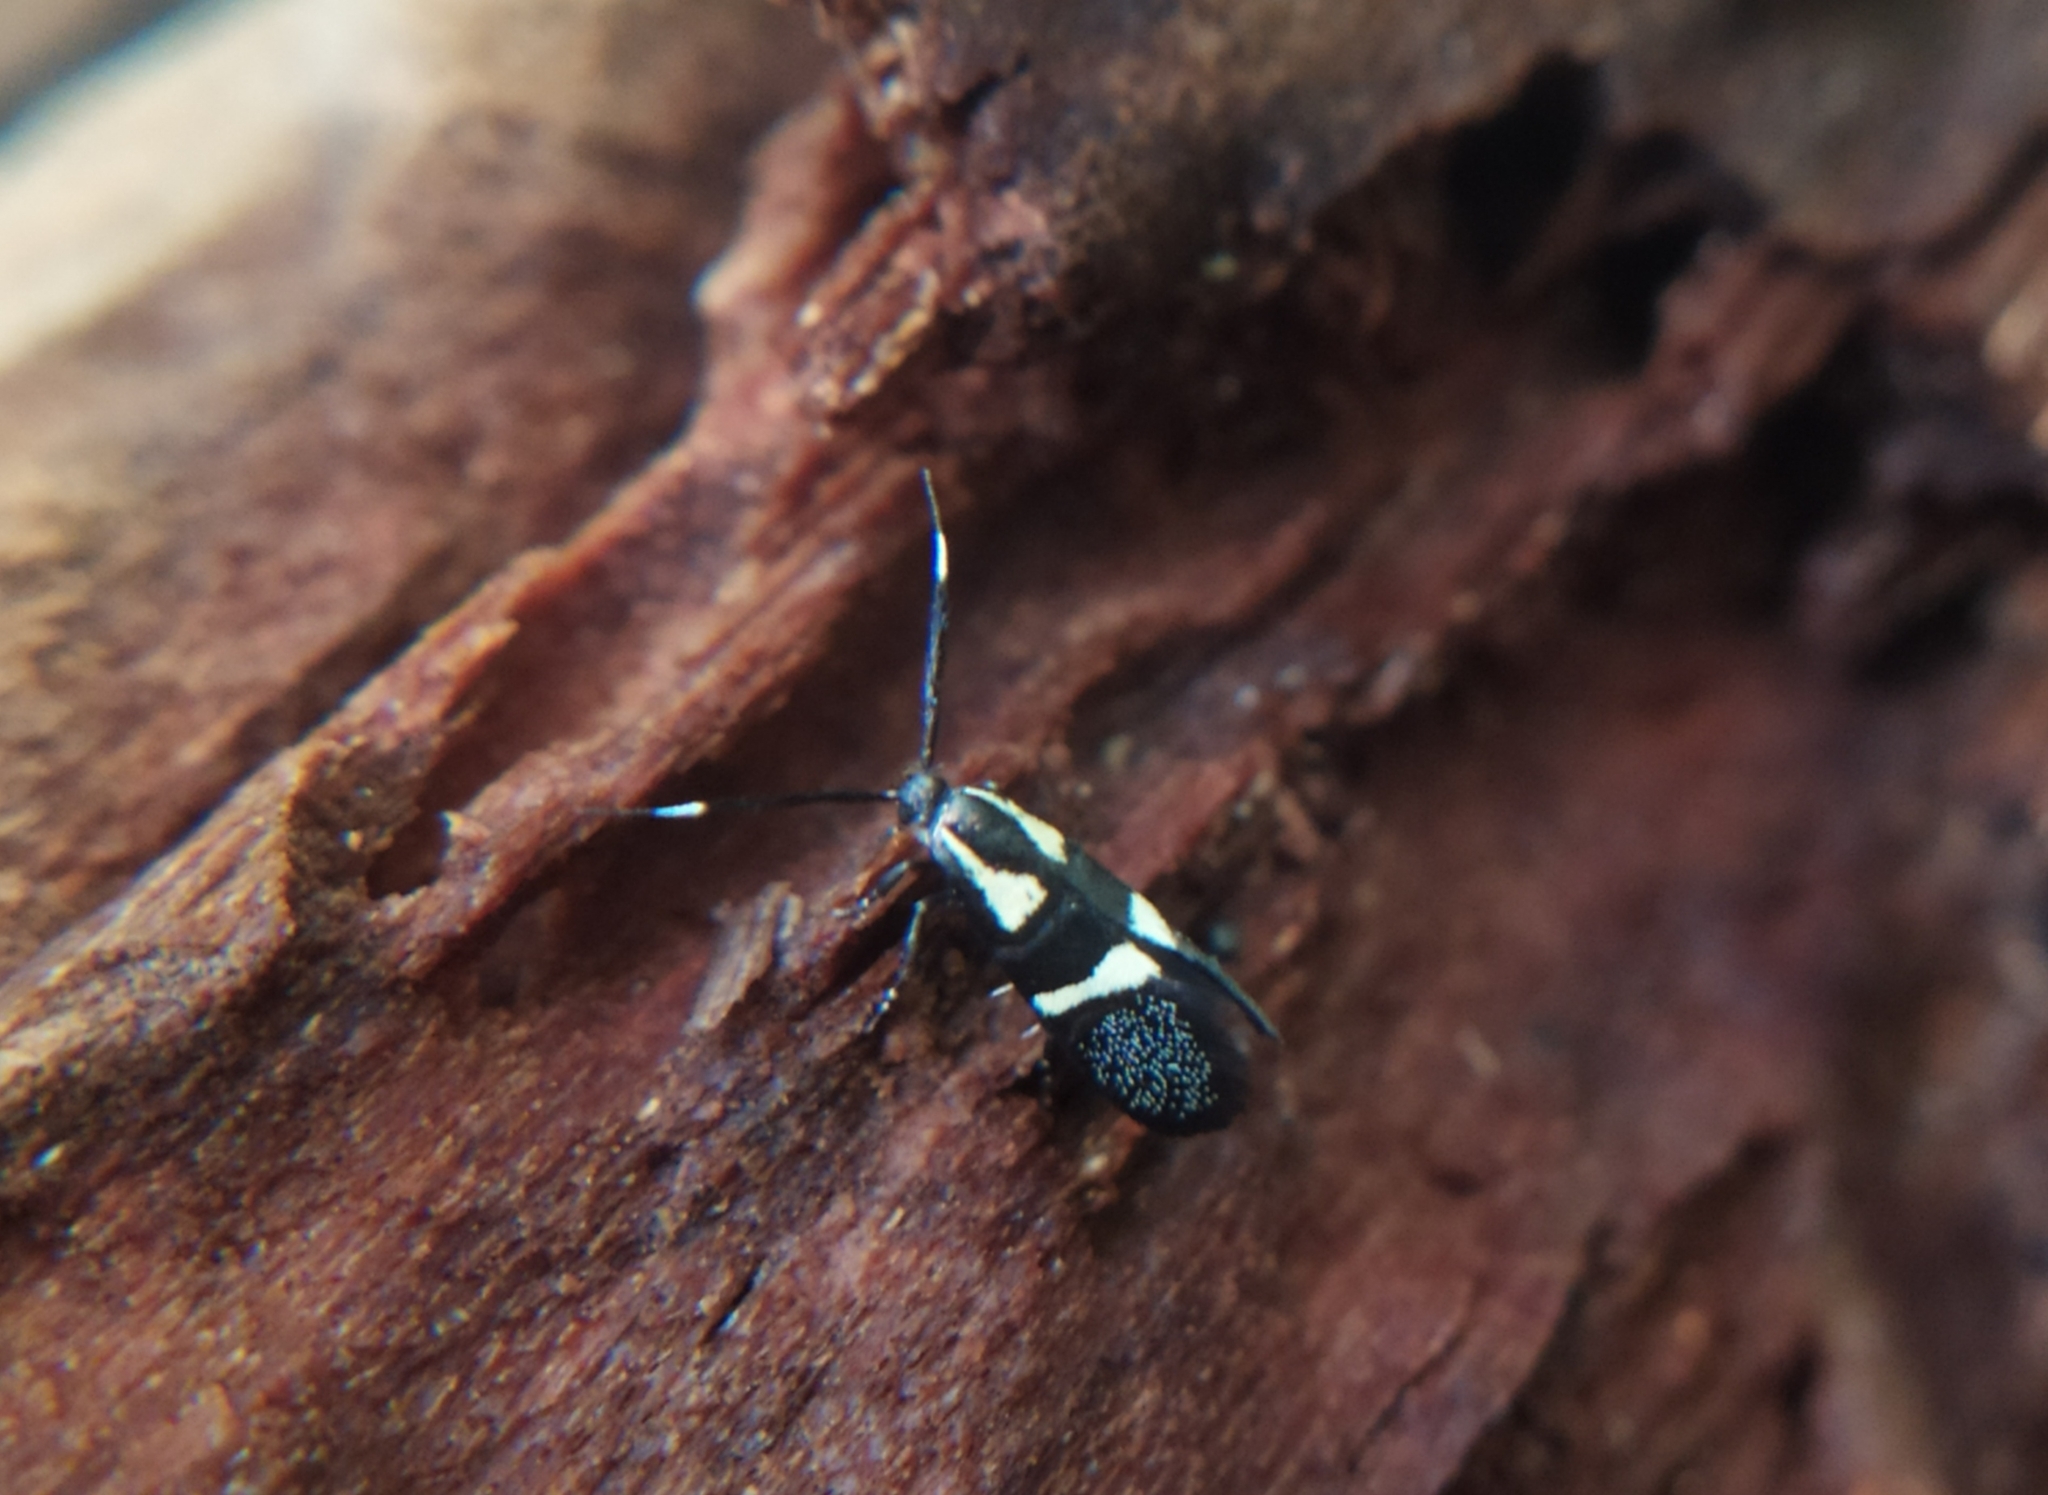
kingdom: Animalia
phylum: Arthropoda
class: Insecta
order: Lepidoptera
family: Oecophoridae
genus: Dafa
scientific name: Dafa oliviella
